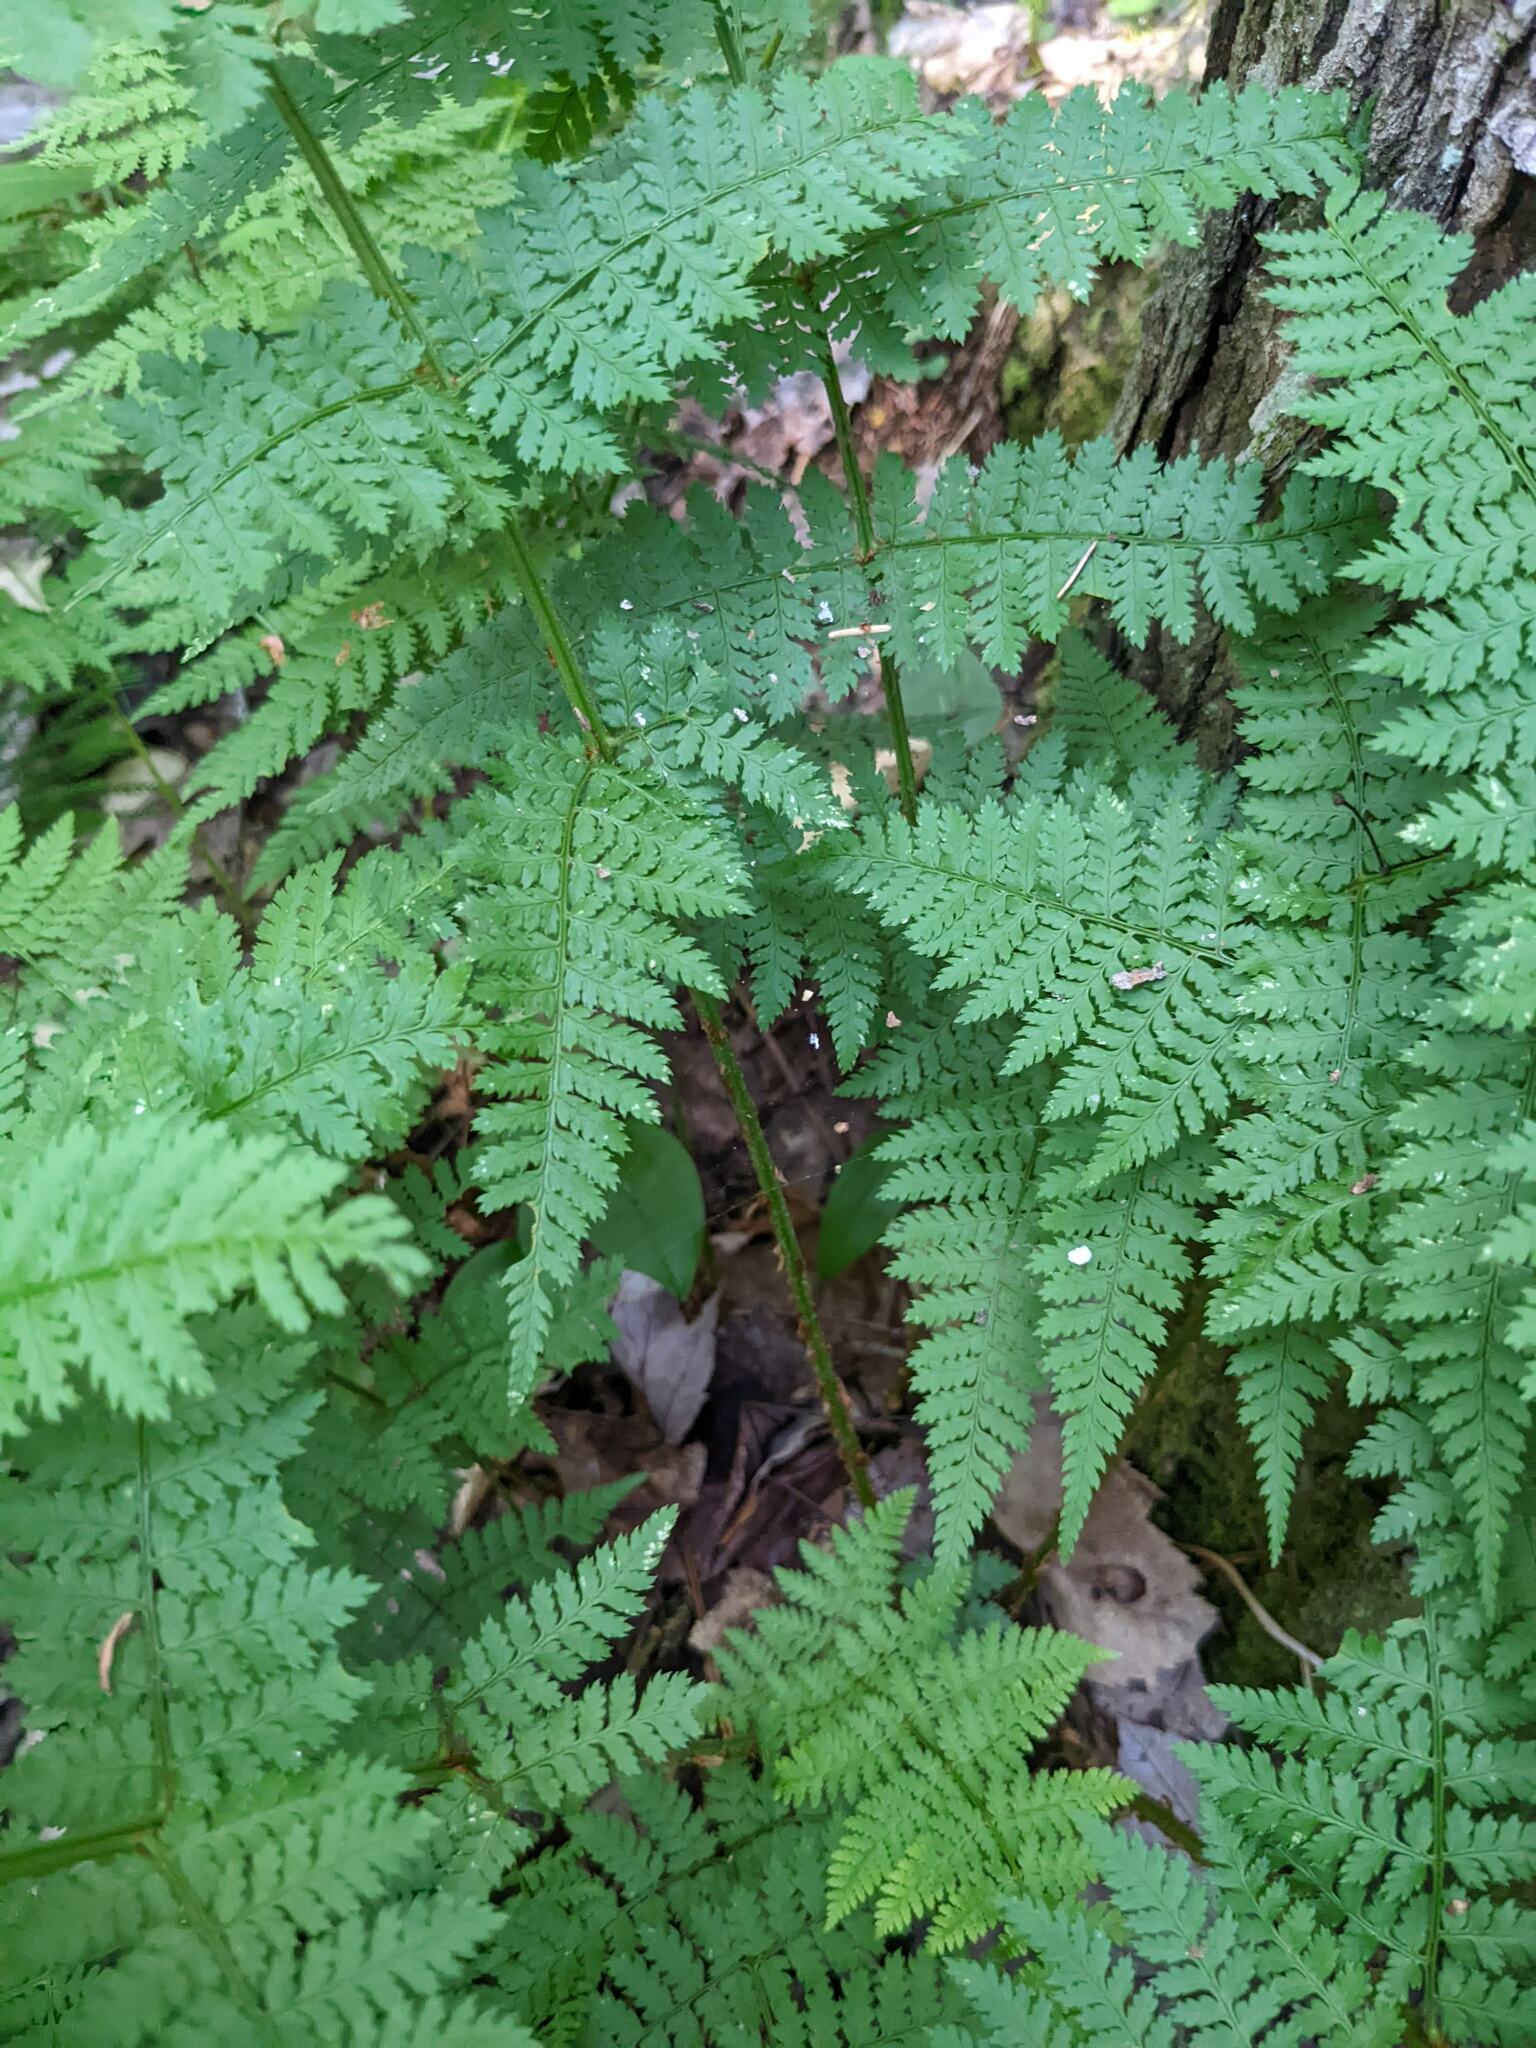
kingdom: Plantae
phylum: Tracheophyta
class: Polypodiopsida
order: Polypodiales
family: Dryopteridaceae
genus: Dryopteris
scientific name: Dryopteris intermedia
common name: Evergreen wood fern
